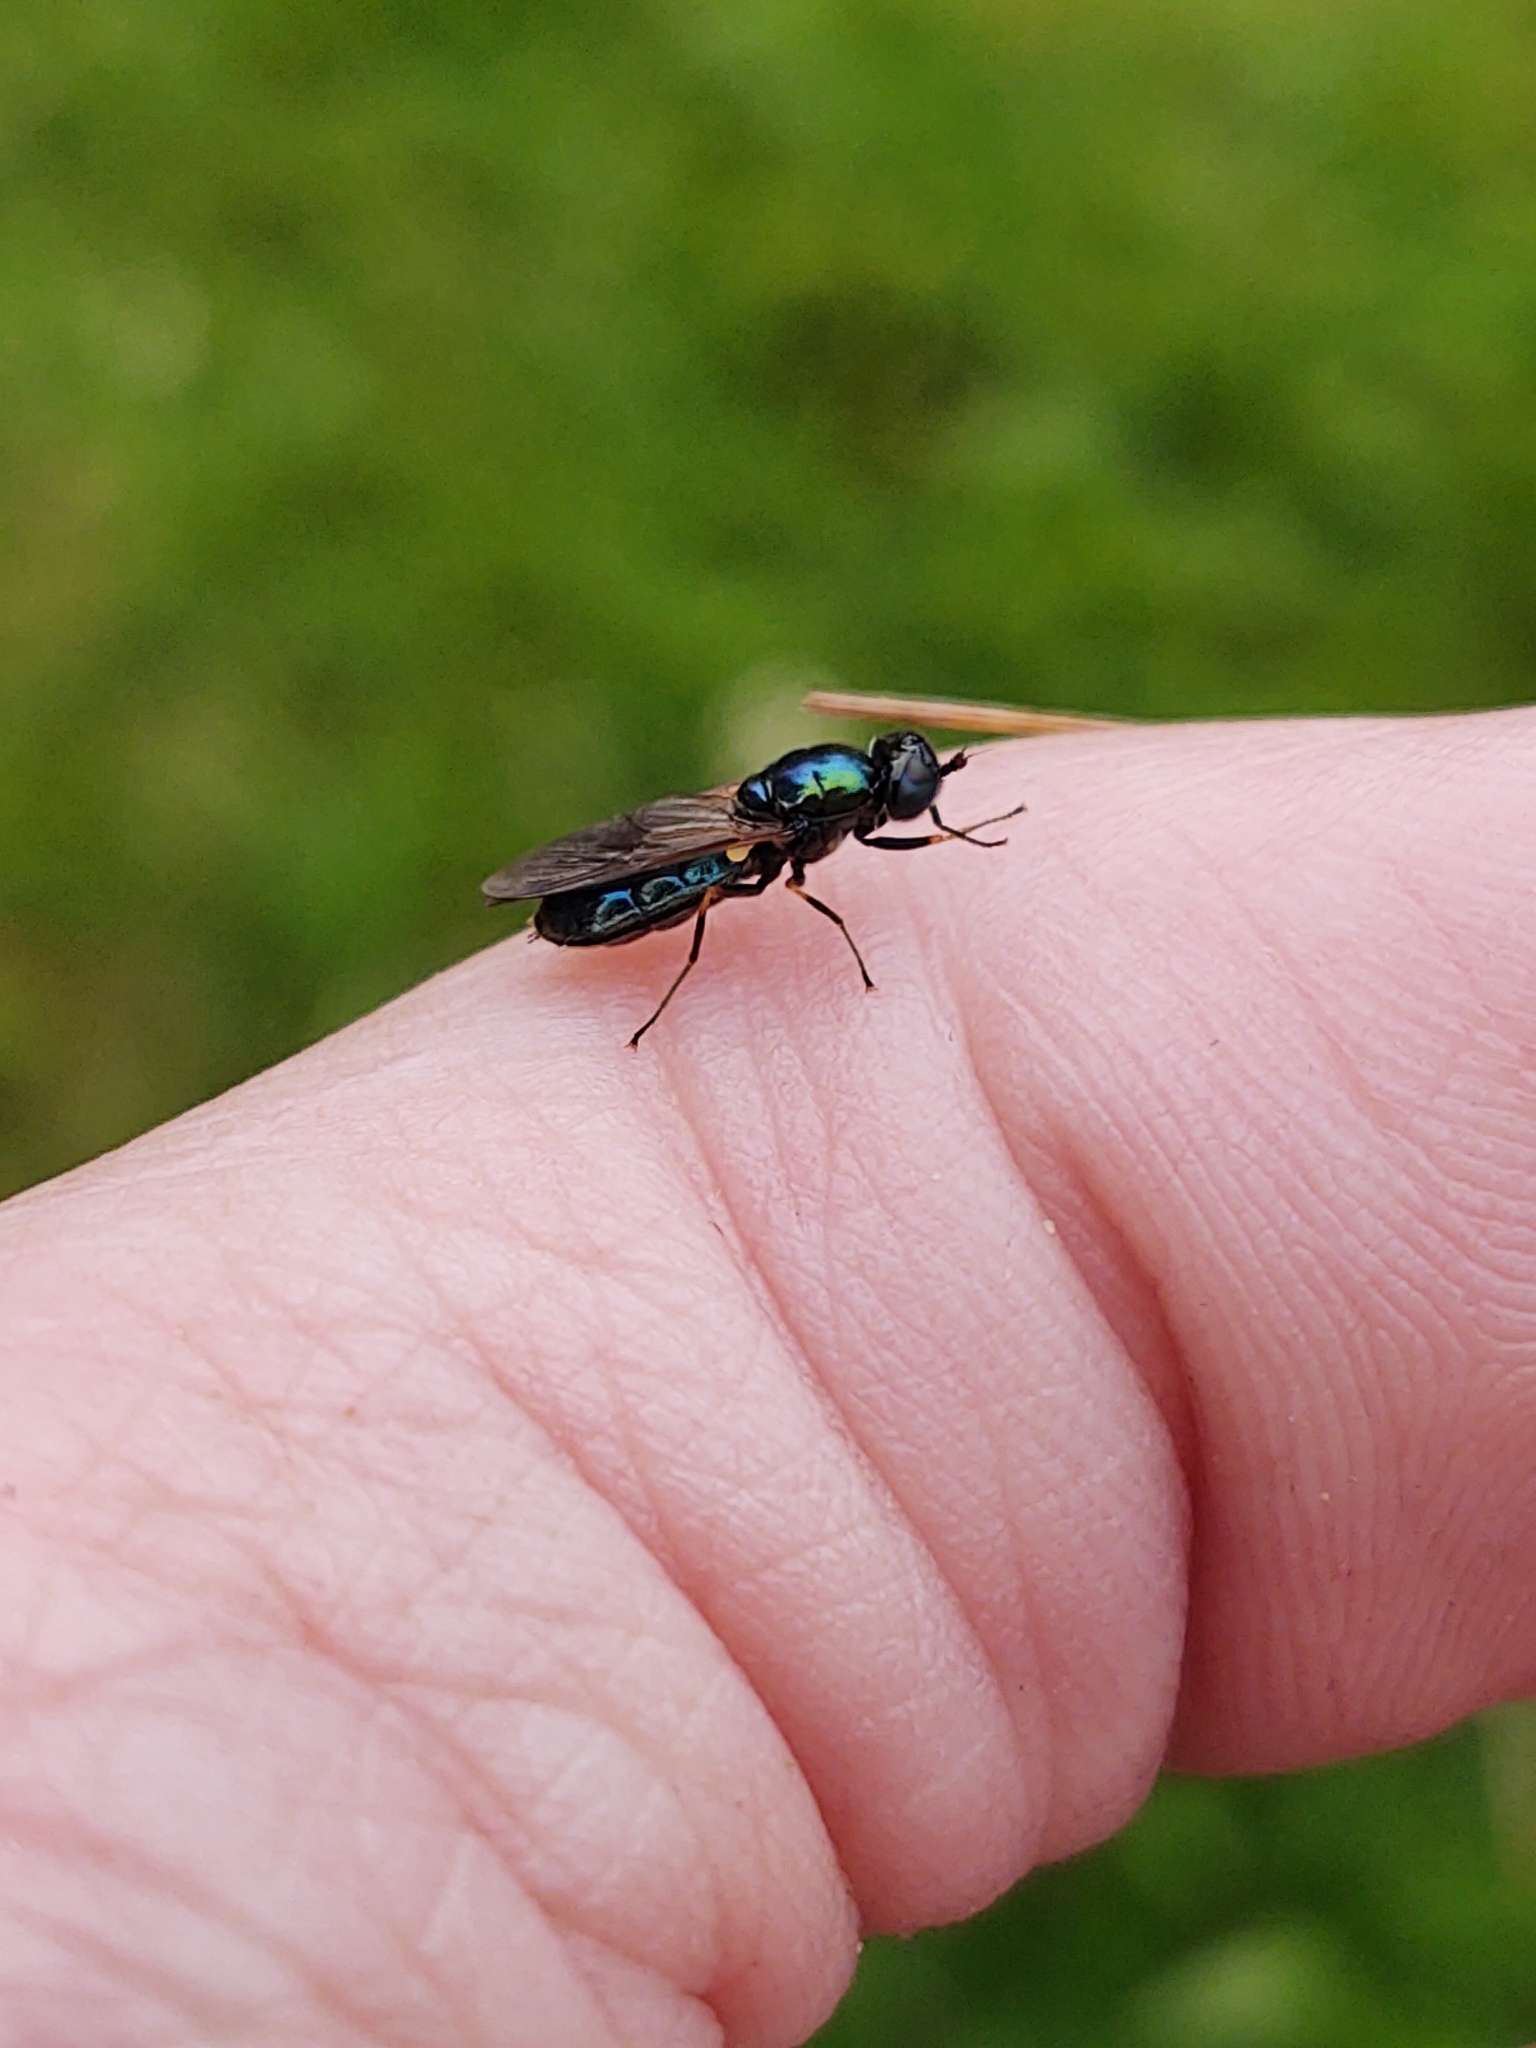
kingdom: Animalia
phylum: Arthropoda
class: Insecta
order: Diptera
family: Stratiomyidae
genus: Chloromyia
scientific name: Chloromyia formosa
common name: Soldier fly
